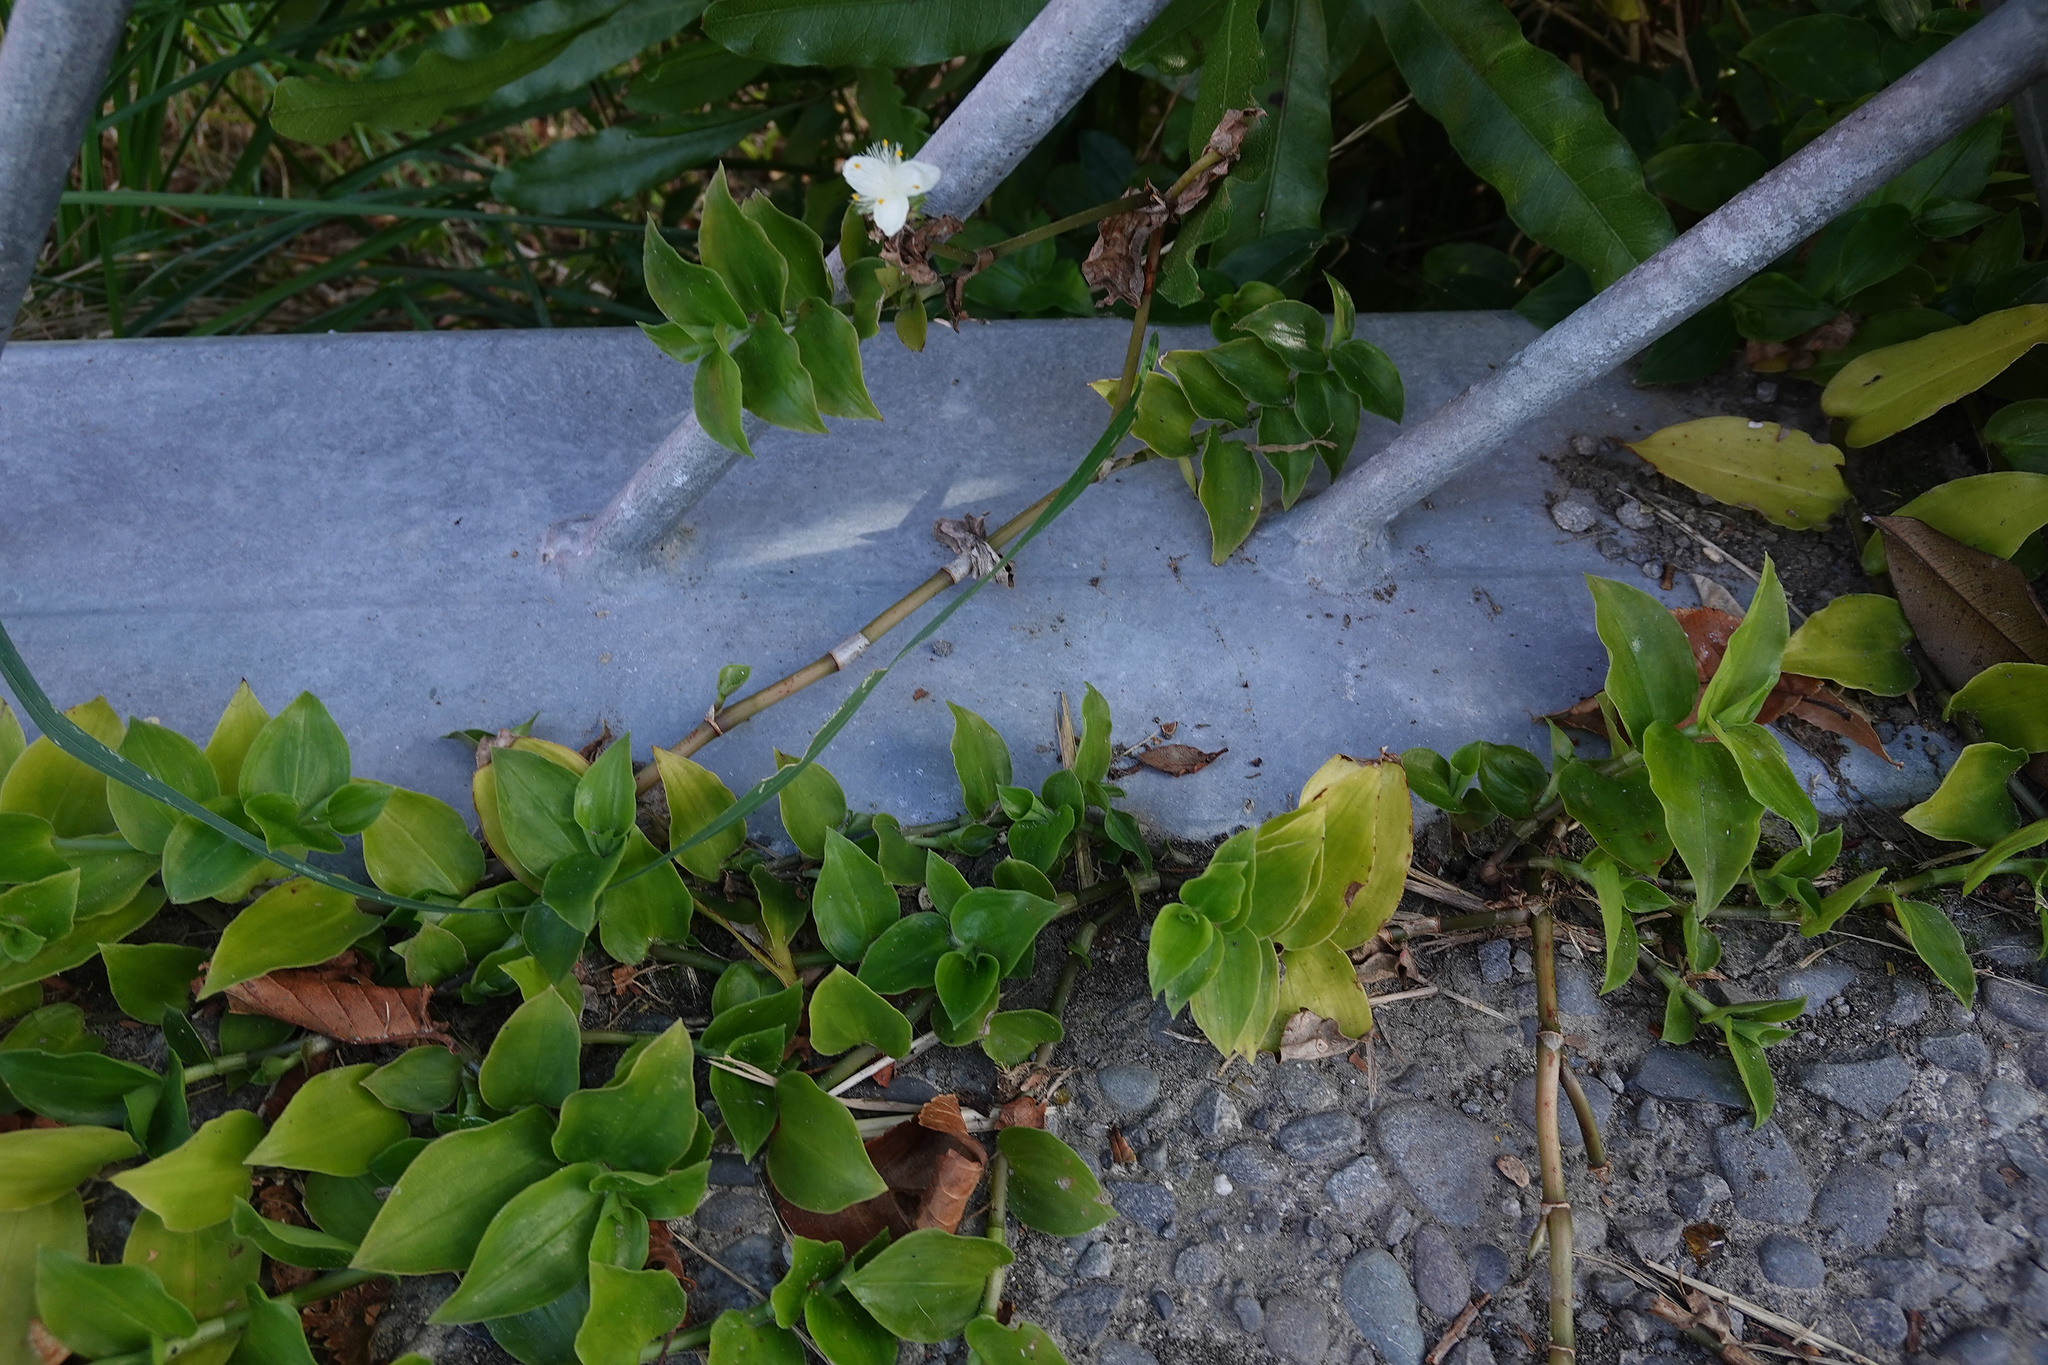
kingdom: Plantae
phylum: Tracheophyta
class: Liliopsida
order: Commelinales
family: Commelinaceae
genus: Tradescantia
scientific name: Tradescantia fluminensis
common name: Wandering-jew
